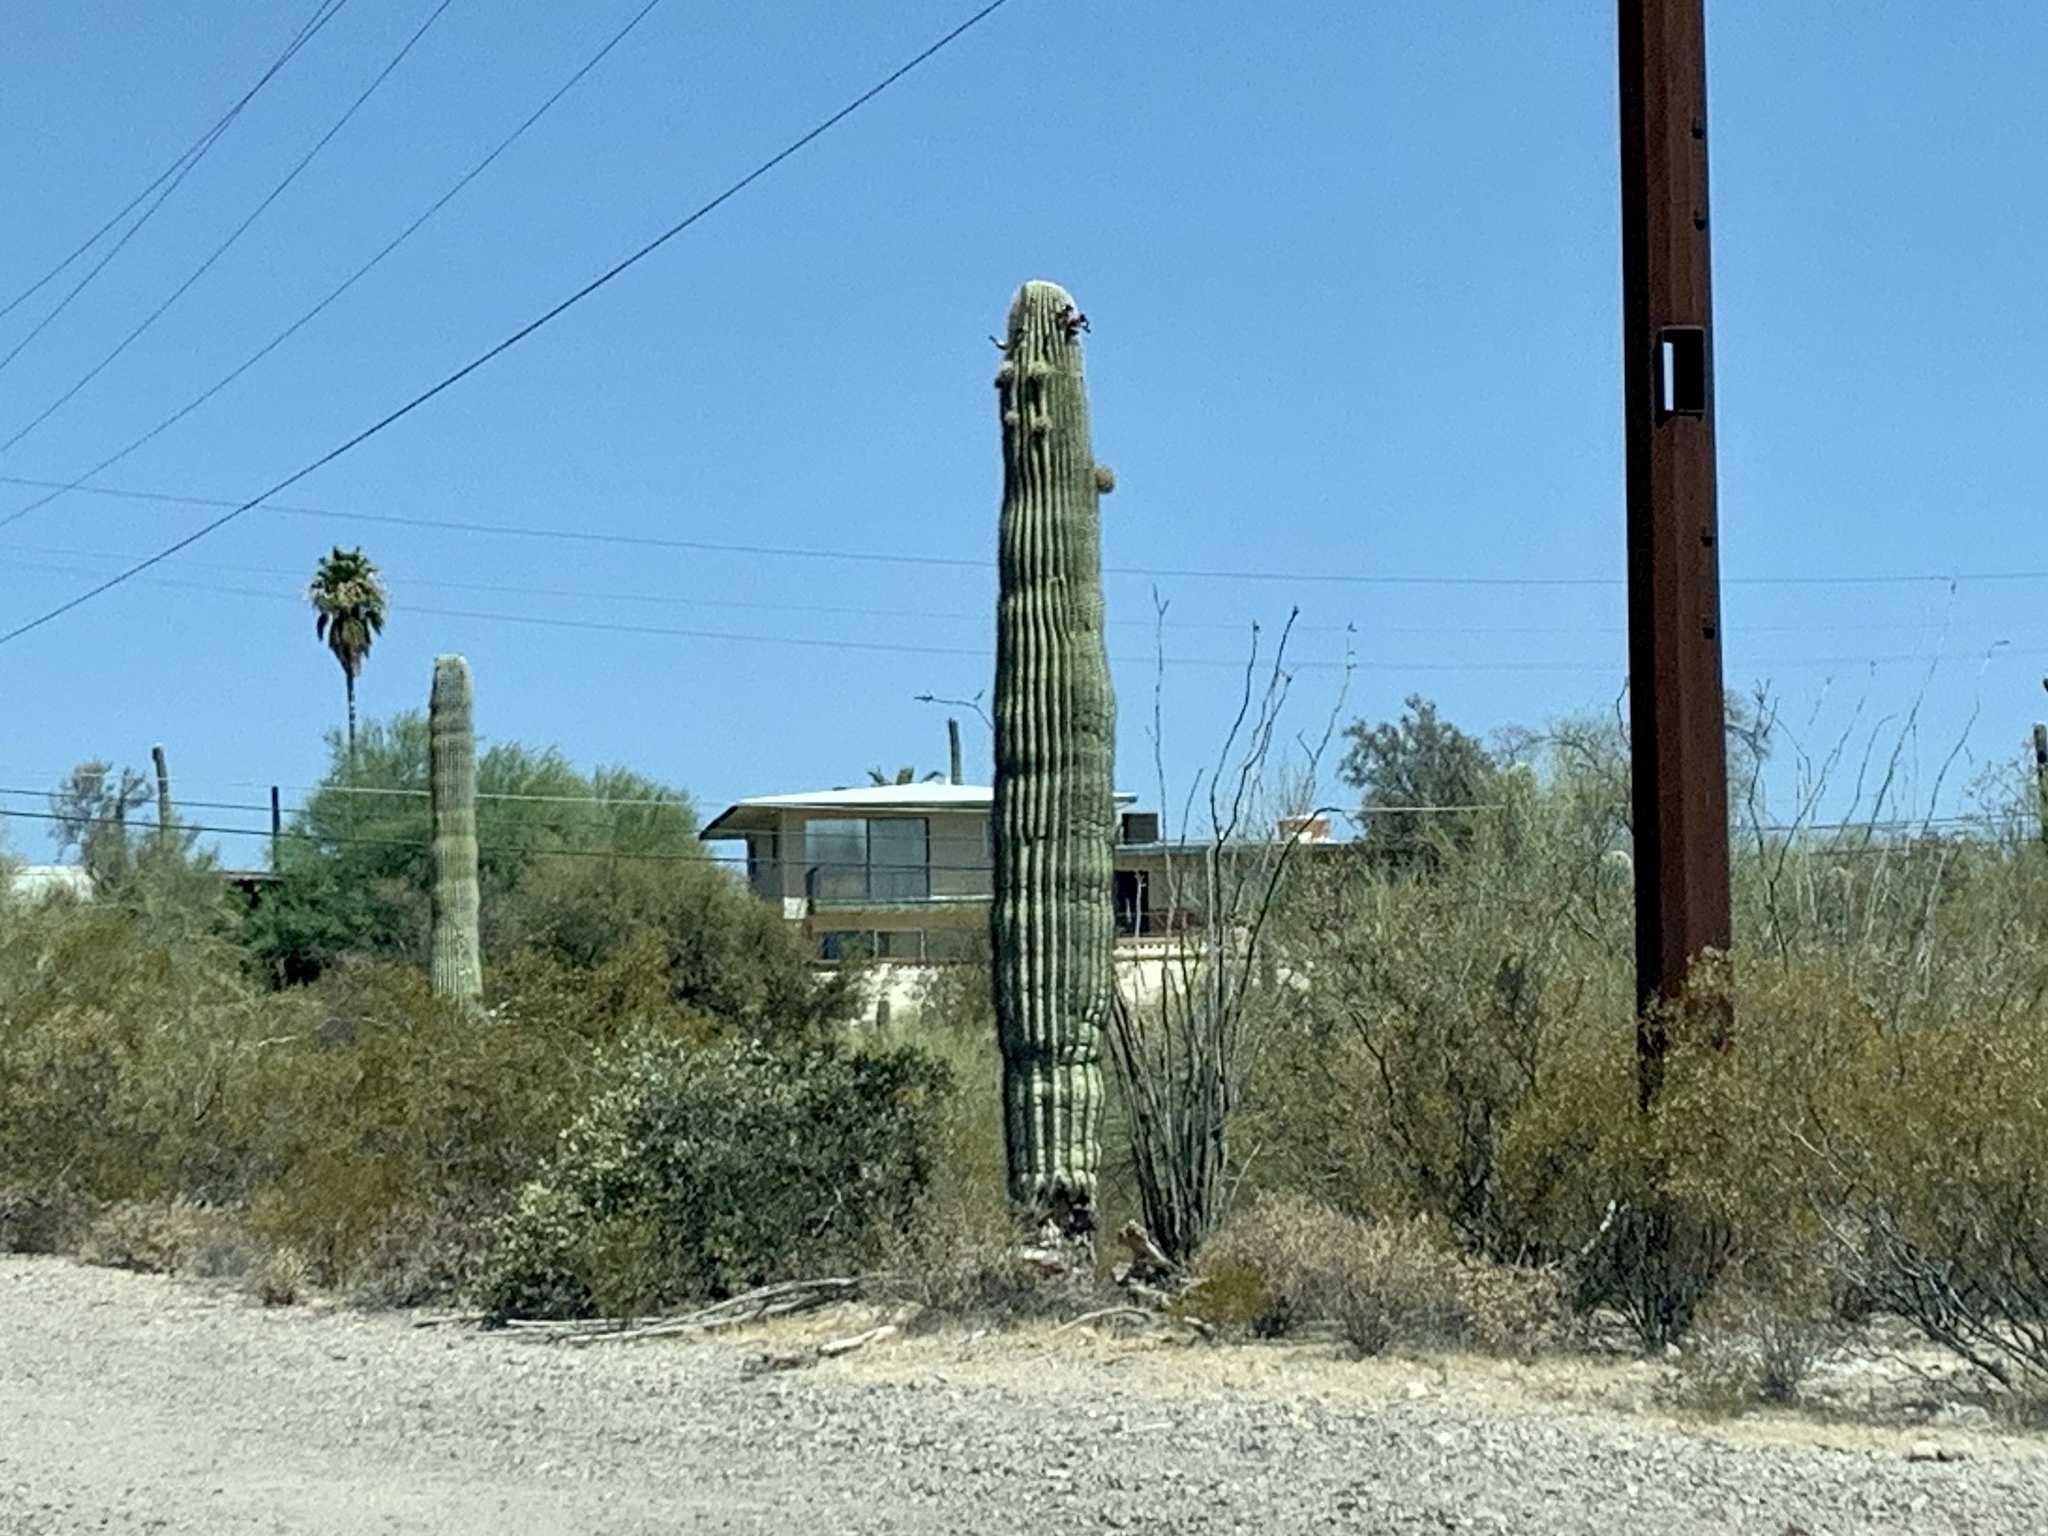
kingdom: Plantae
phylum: Tracheophyta
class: Magnoliopsida
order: Caryophyllales
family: Cactaceae
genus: Carnegiea
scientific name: Carnegiea gigantea
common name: Saguaro
